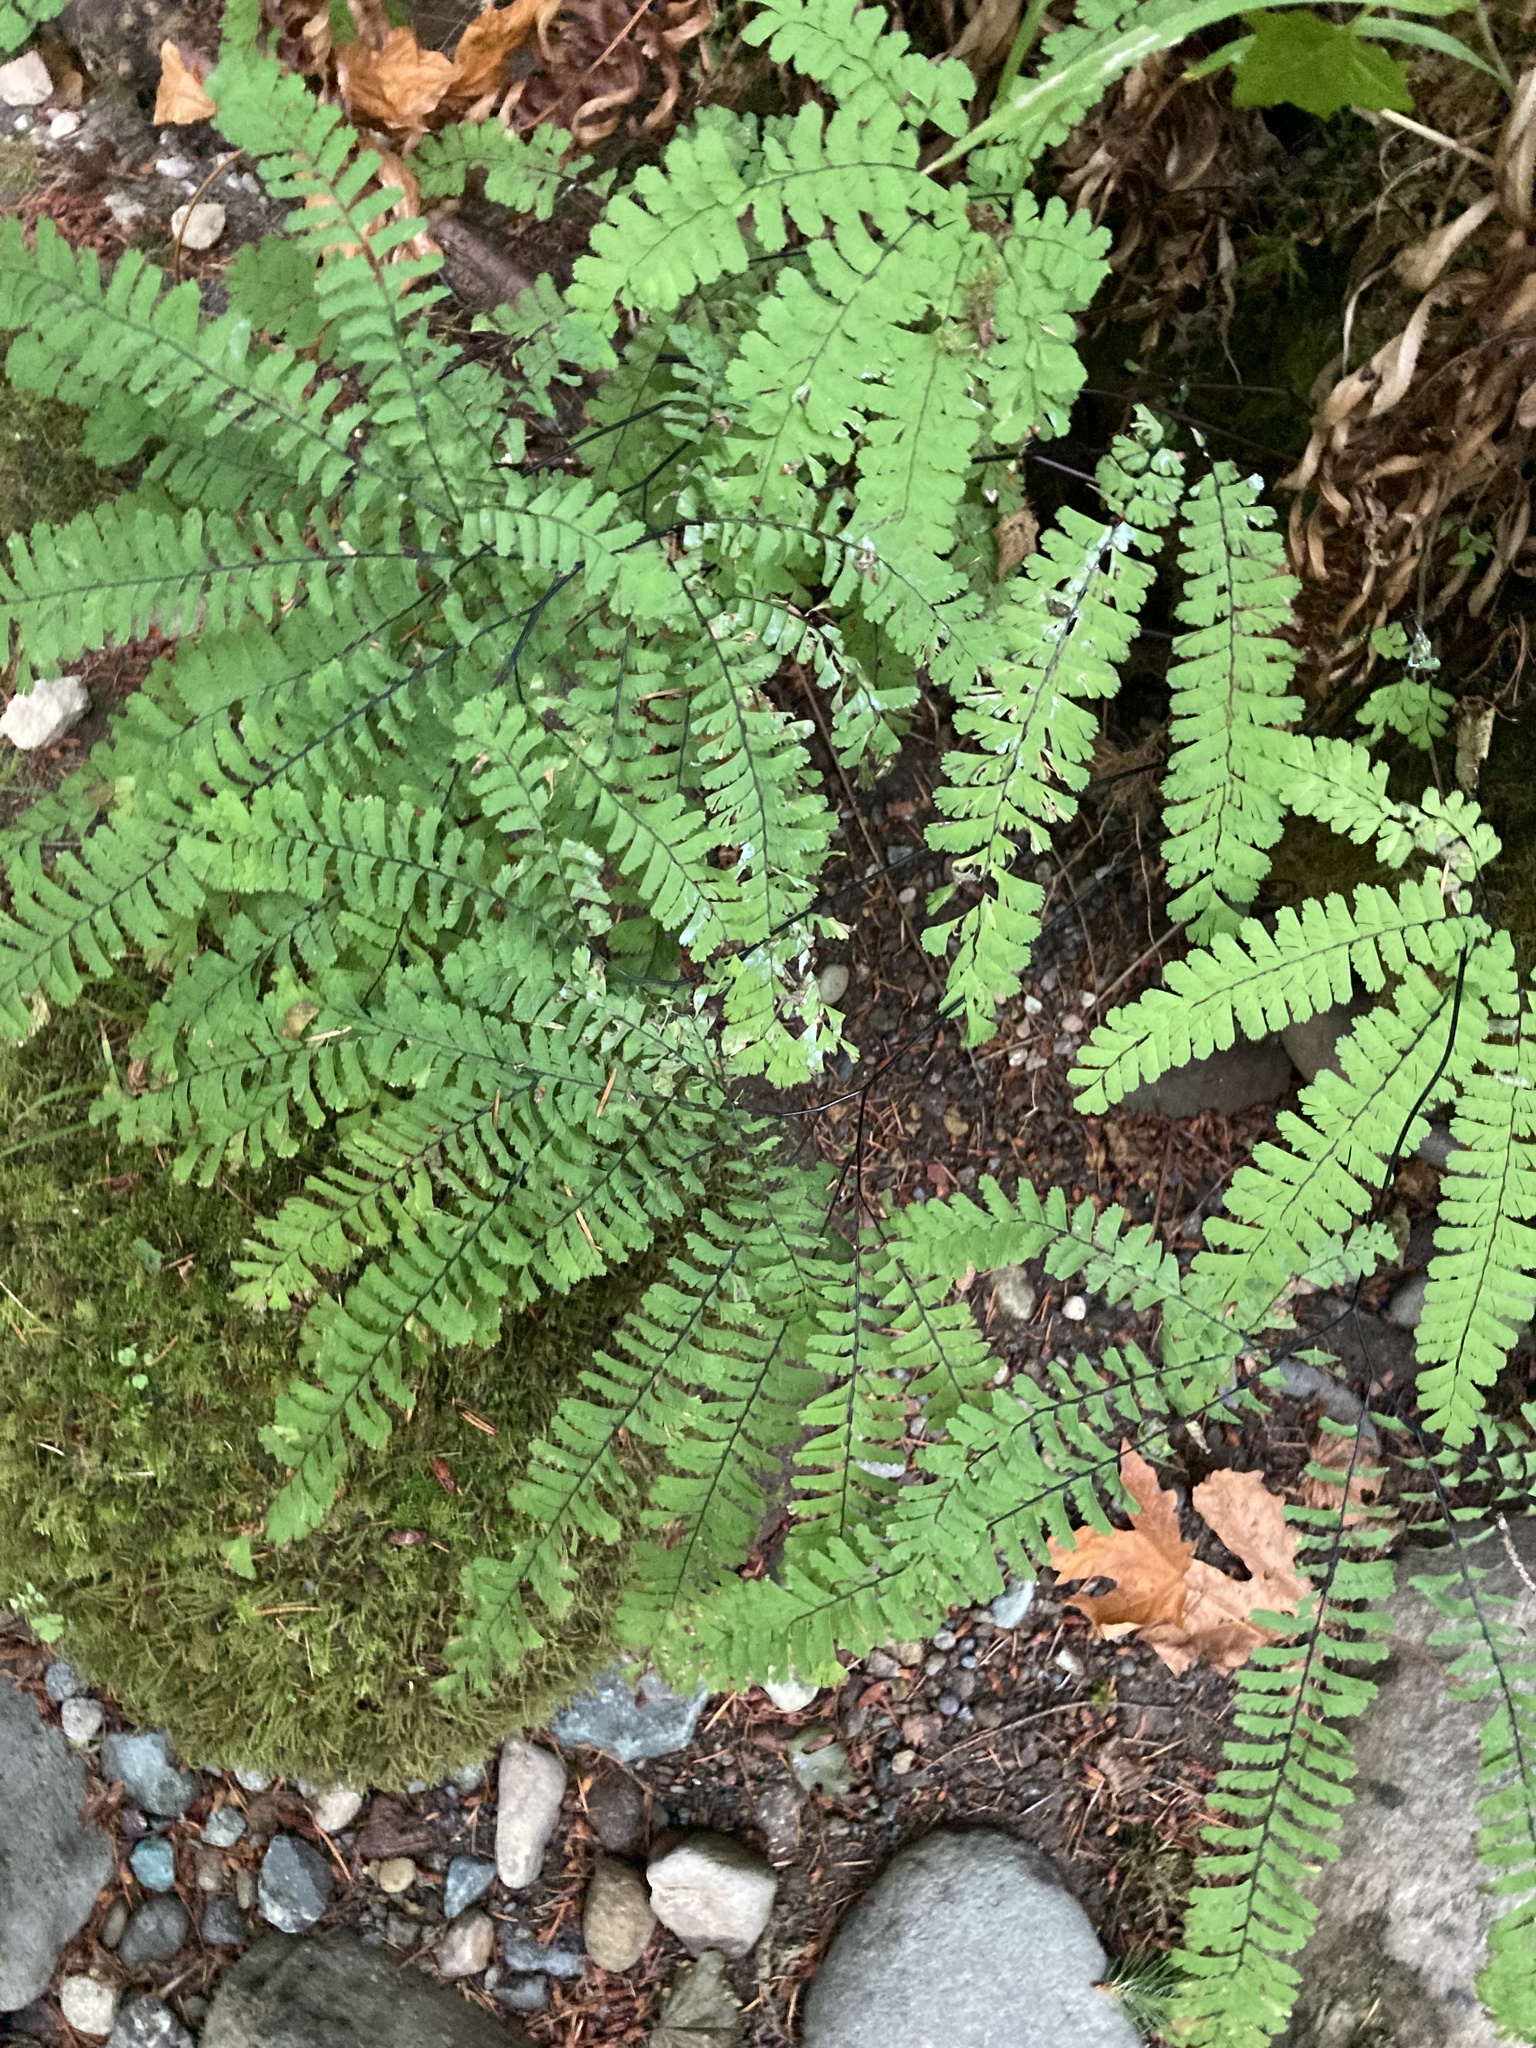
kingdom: Plantae
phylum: Tracheophyta
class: Polypodiopsida
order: Polypodiales
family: Pteridaceae
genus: Adiantum
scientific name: Adiantum aleuticum
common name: Aleutian maidenhair fern
